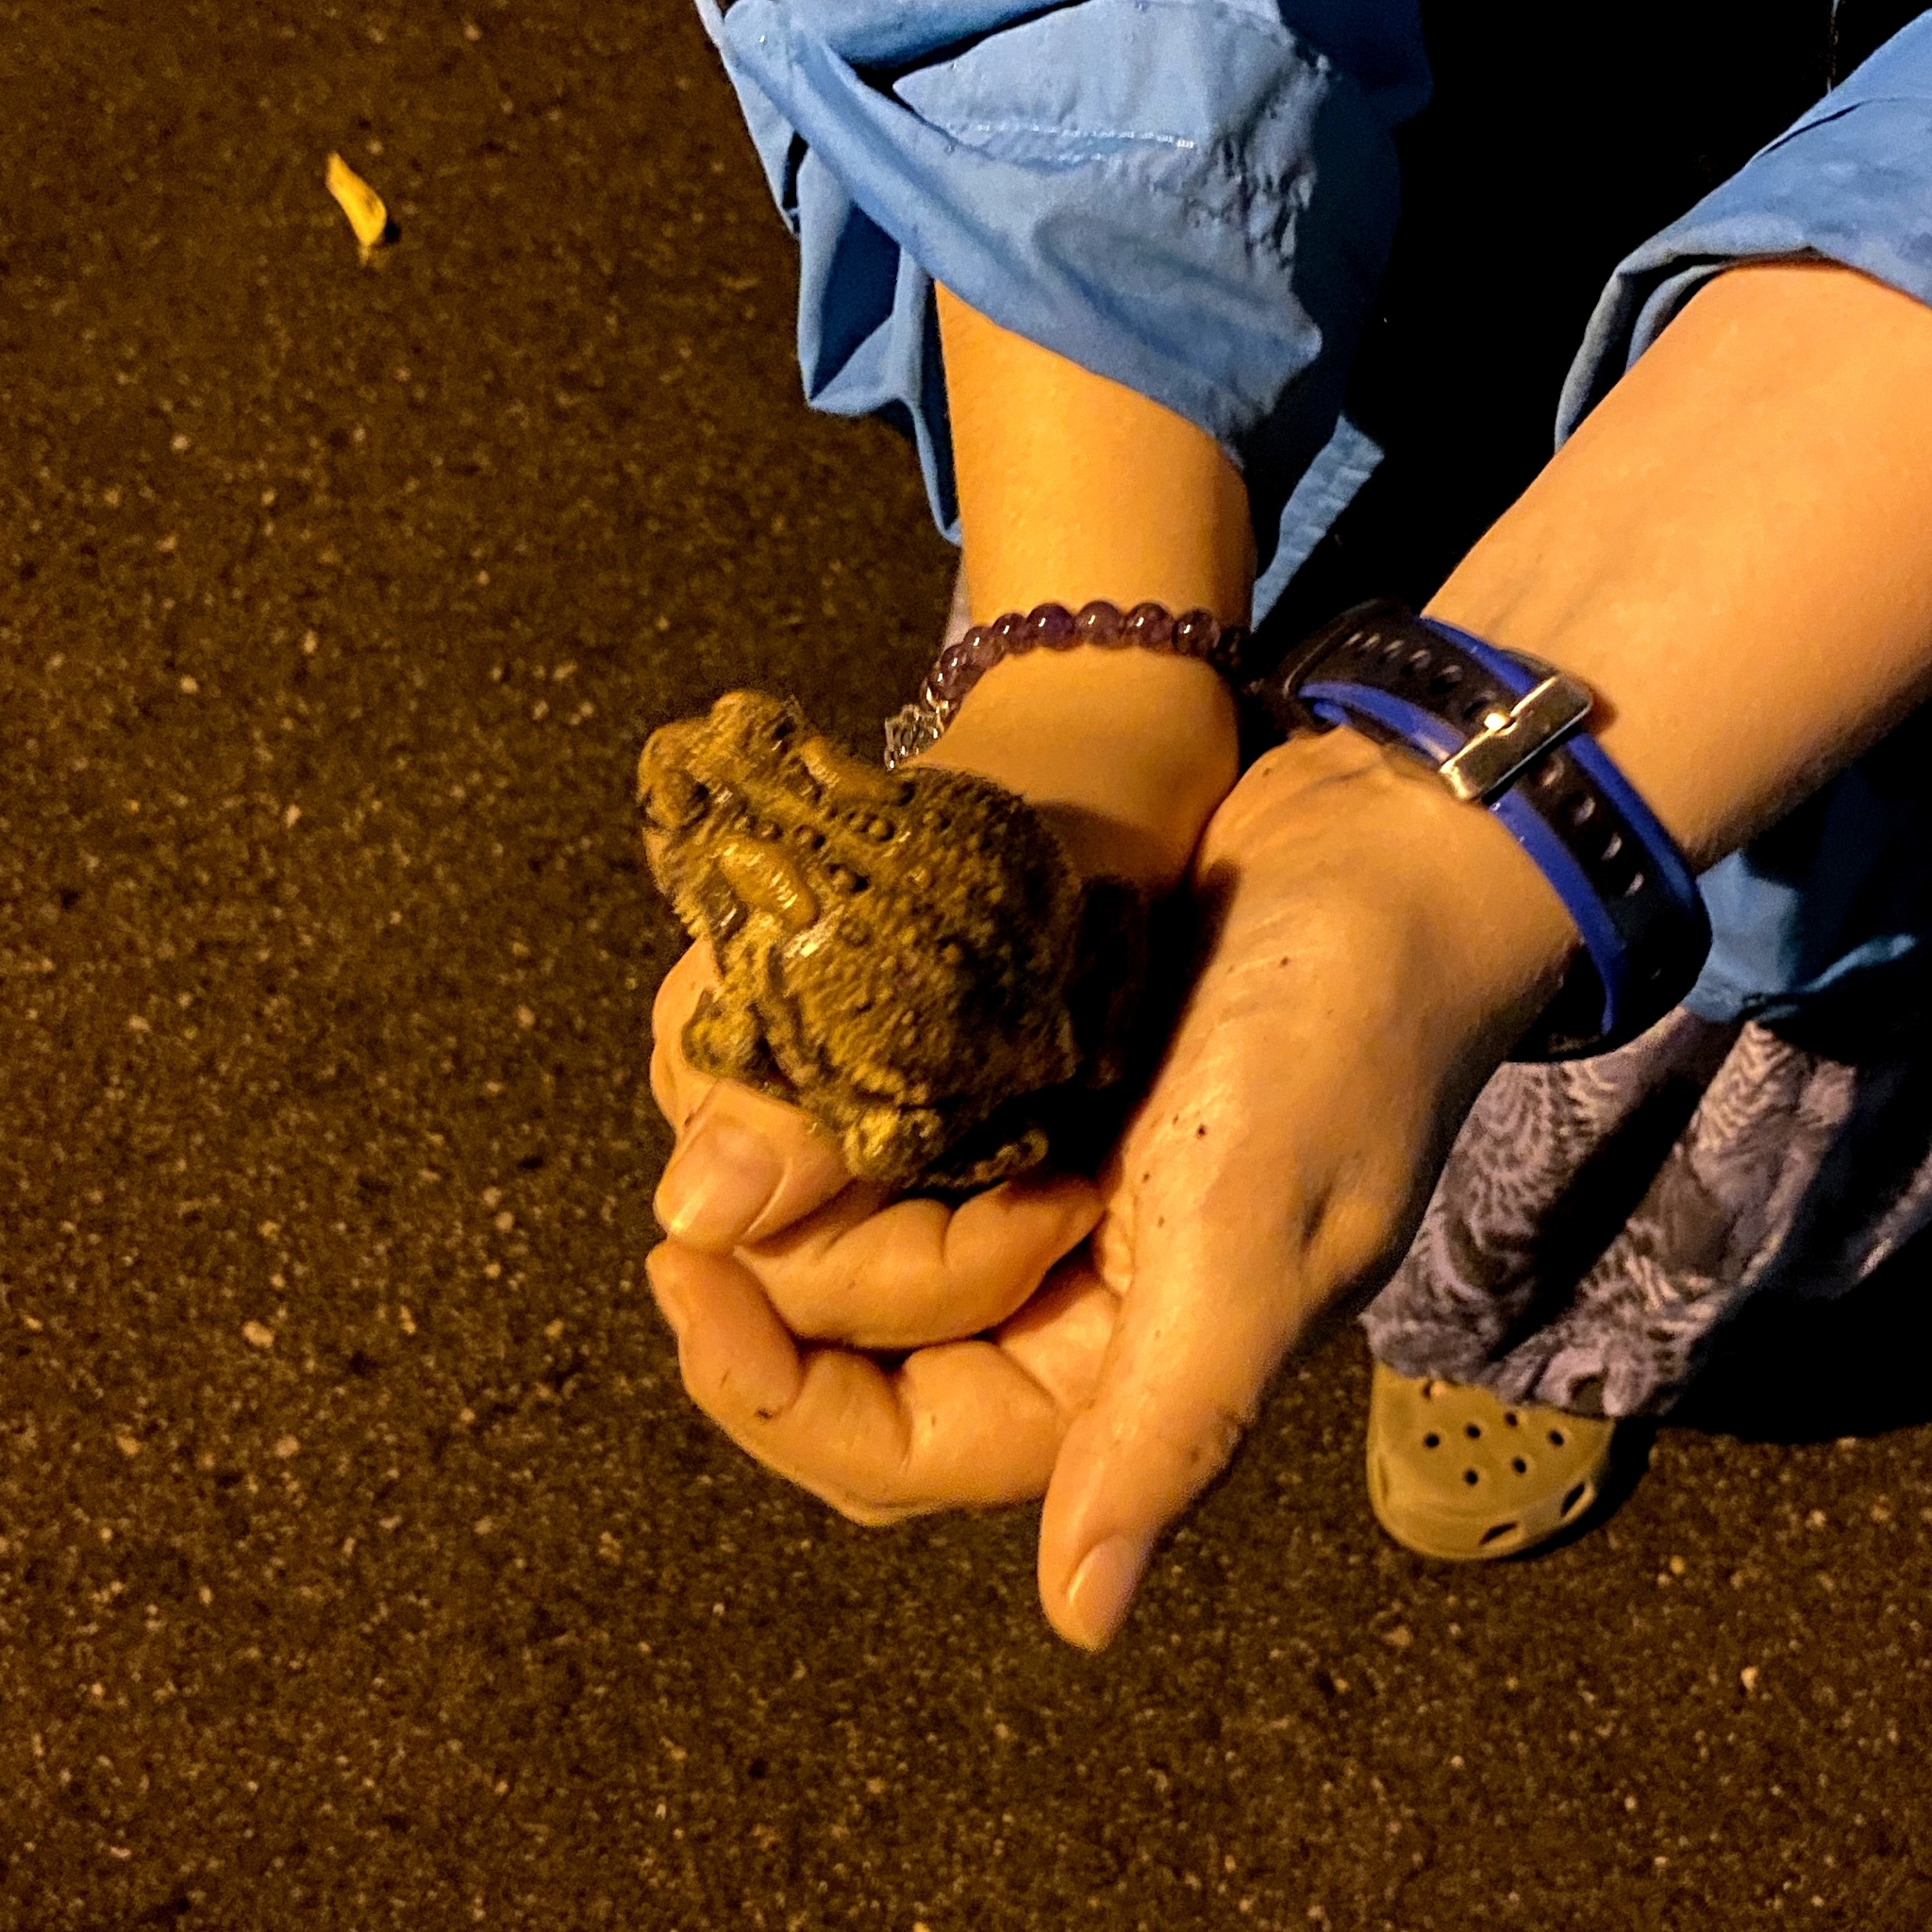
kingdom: Animalia
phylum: Chordata
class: Amphibia
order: Anura
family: Bufonidae
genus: Anaxyrus
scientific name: Anaxyrus americanus
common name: American toad
